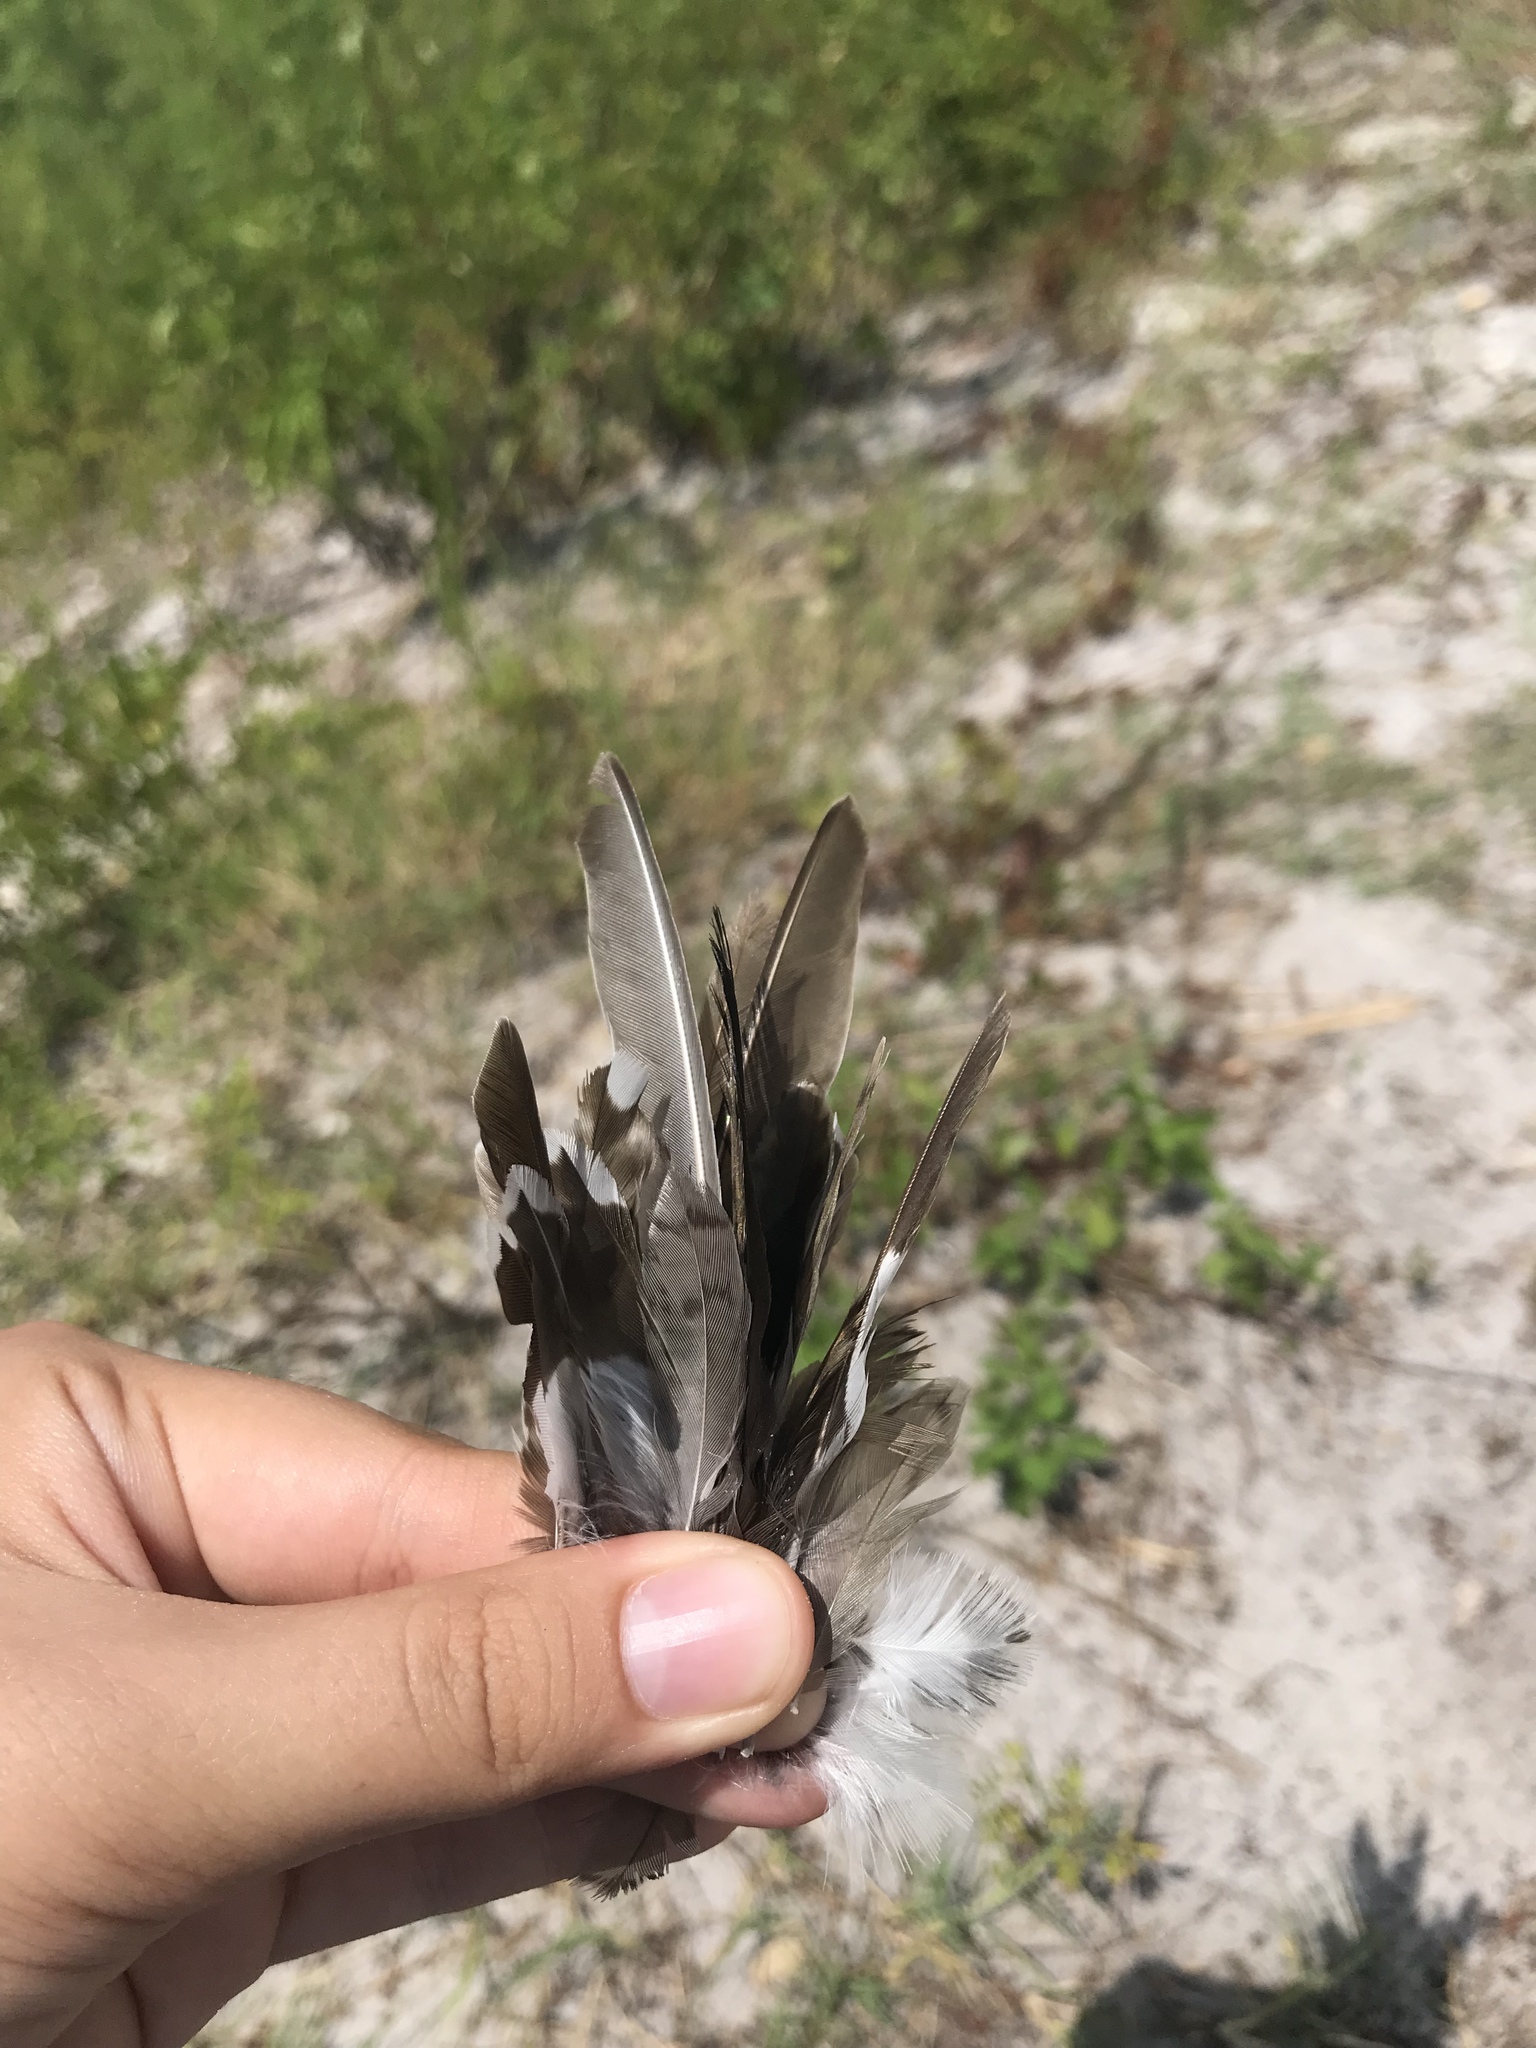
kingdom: Animalia
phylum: Chordata
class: Aves
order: Charadriiformes
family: Scolopacidae
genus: Actitis
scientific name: Actitis macularius
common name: Spotted sandpiper
